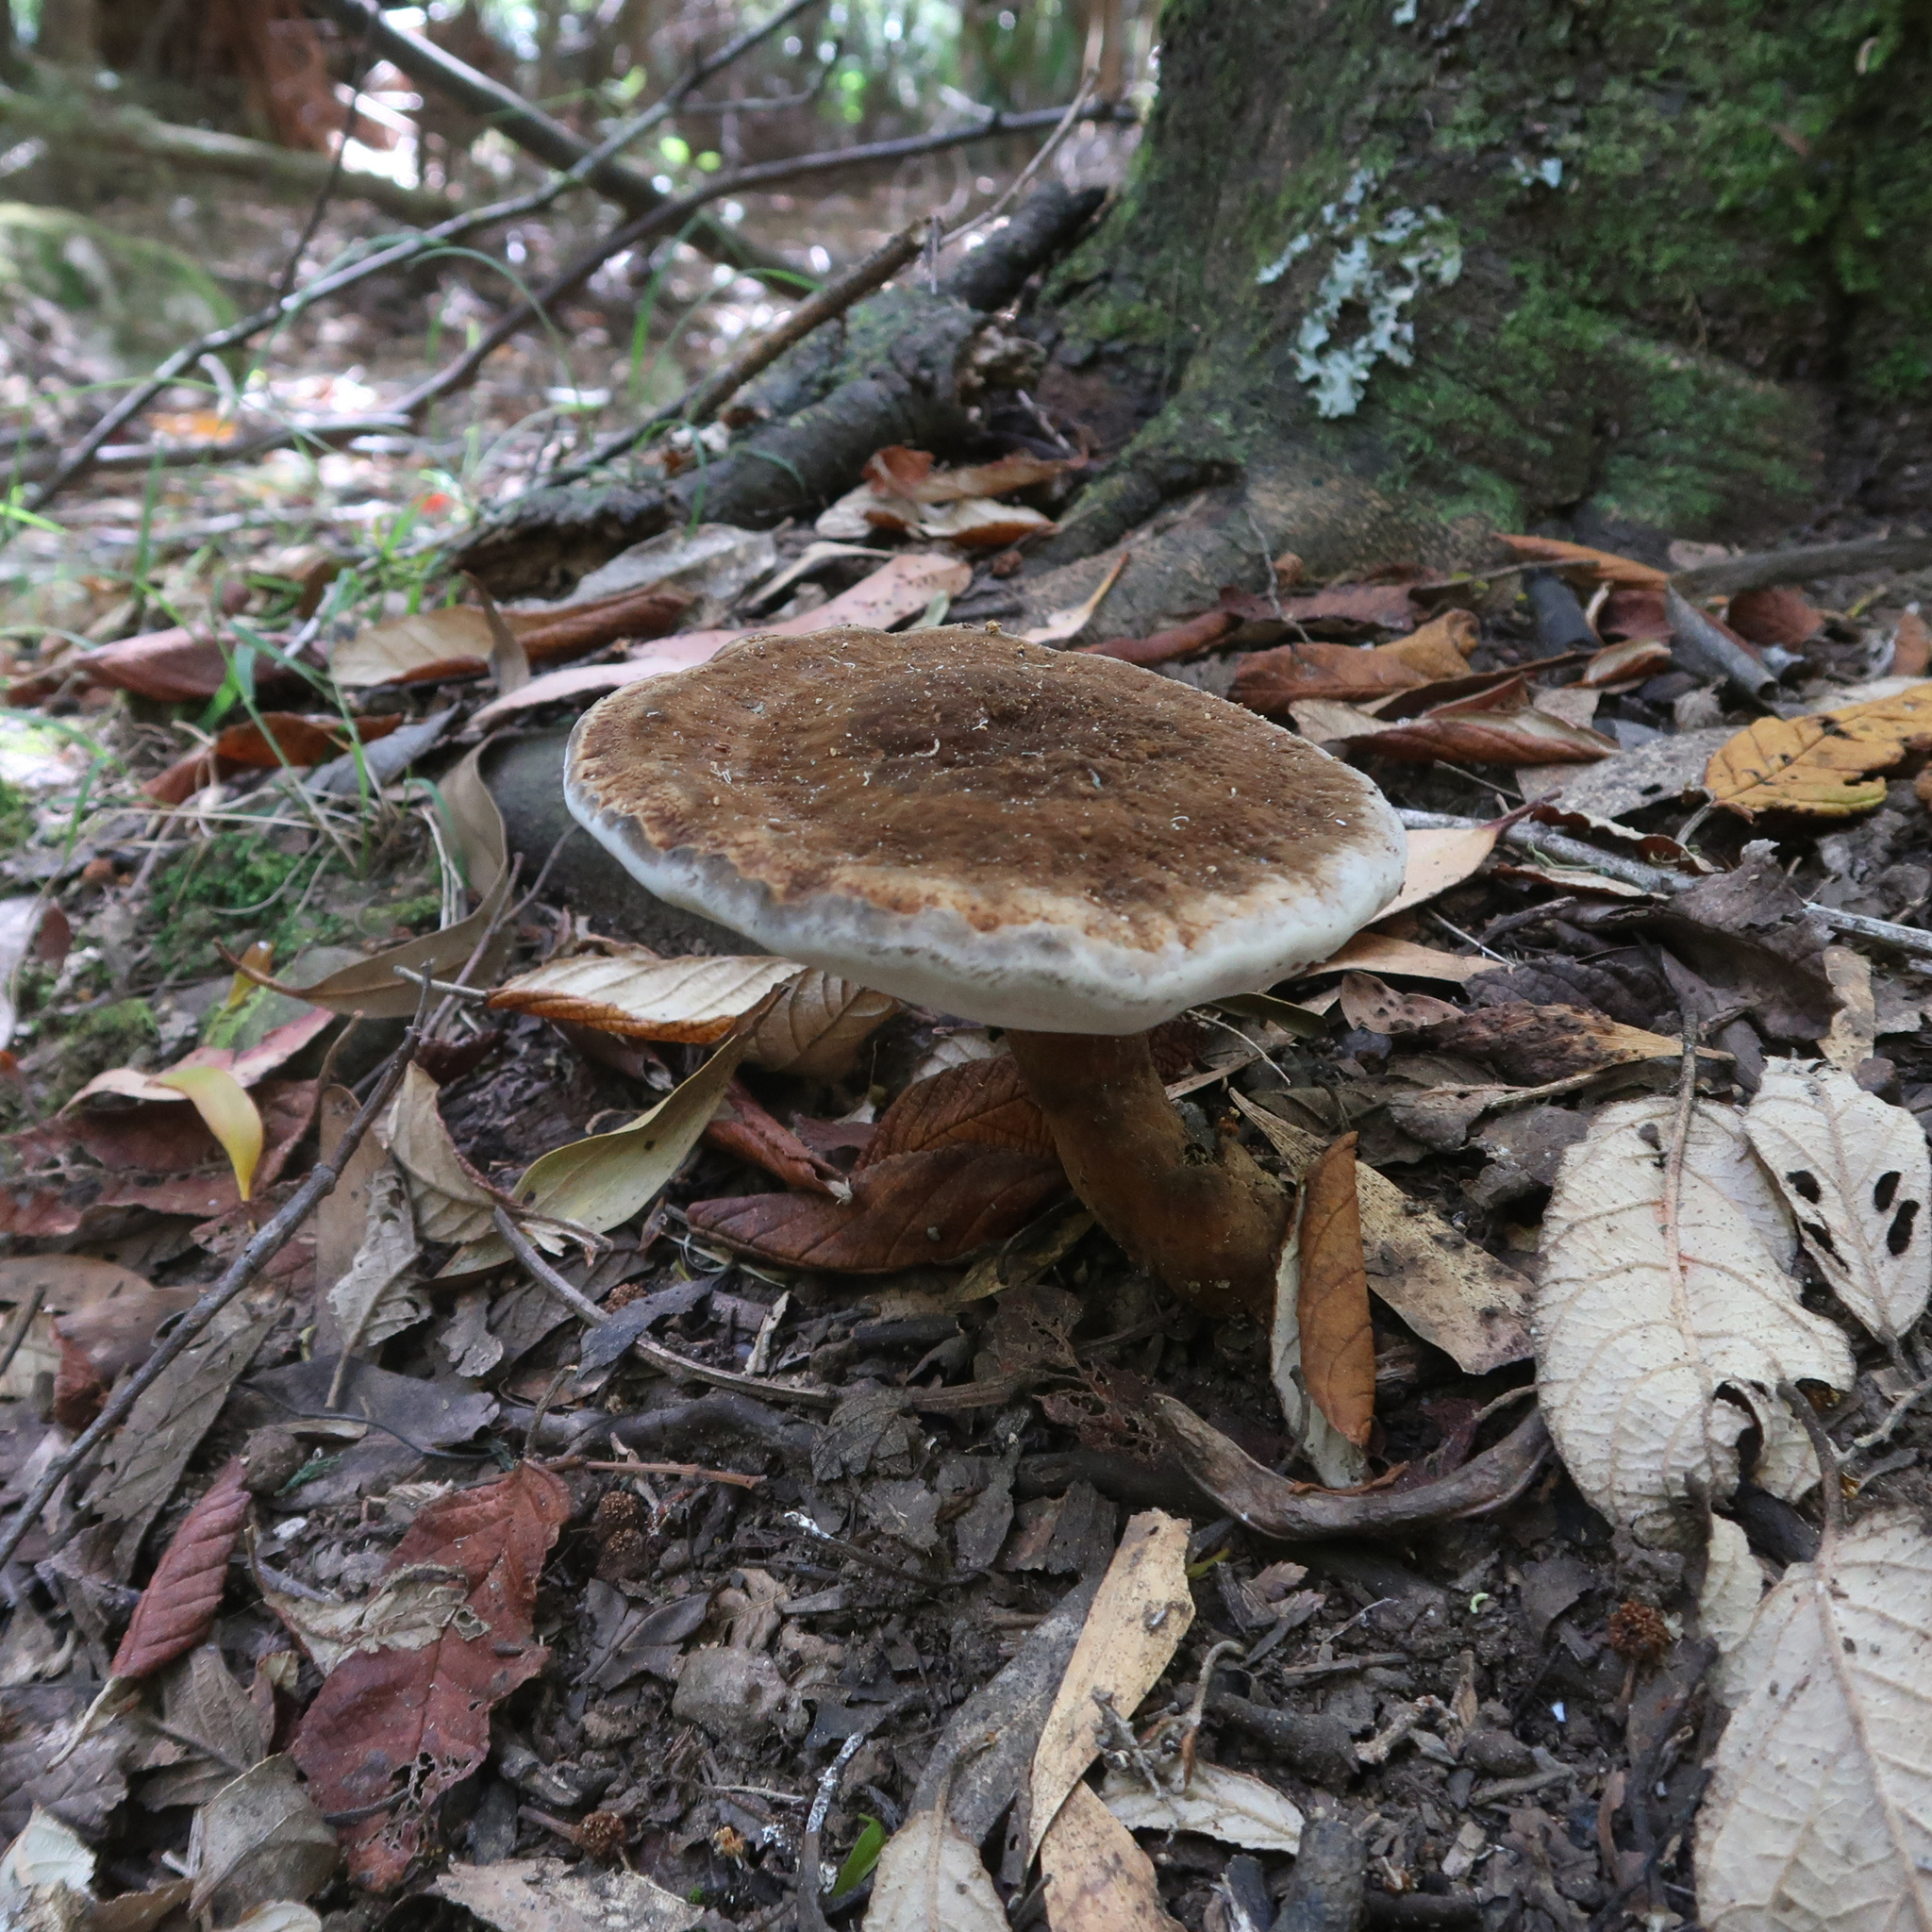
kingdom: Fungi
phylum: Basidiomycota
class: Agaricomycetes
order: Polyporales
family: Ganodermataceae
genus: Sanguinoderma
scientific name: Sanguinoderma rude
